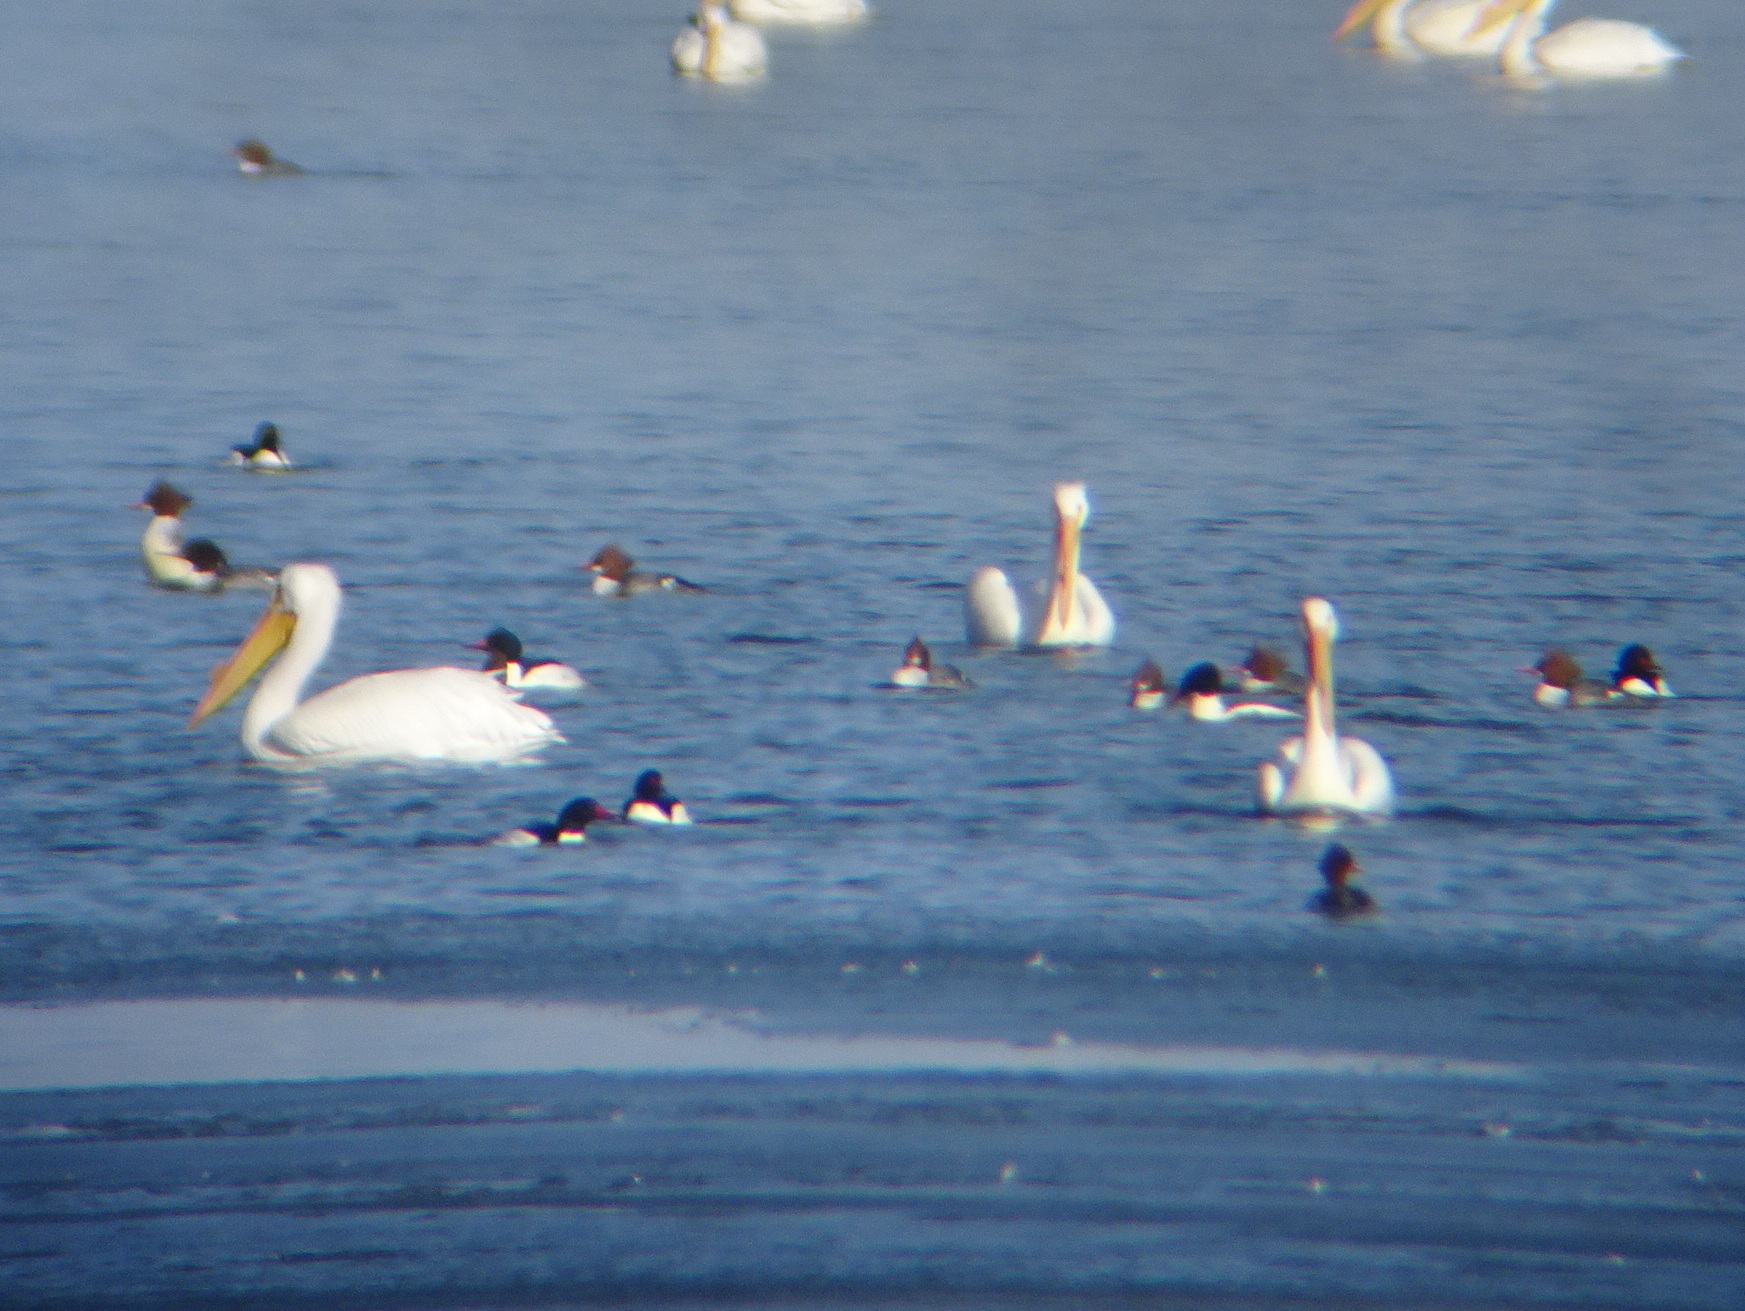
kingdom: Animalia
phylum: Chordata
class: Aves
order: Pelecaniformes
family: Pelecanidae
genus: Pelecanus
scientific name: Pelecanus erythrorhynchos
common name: American white pelican
